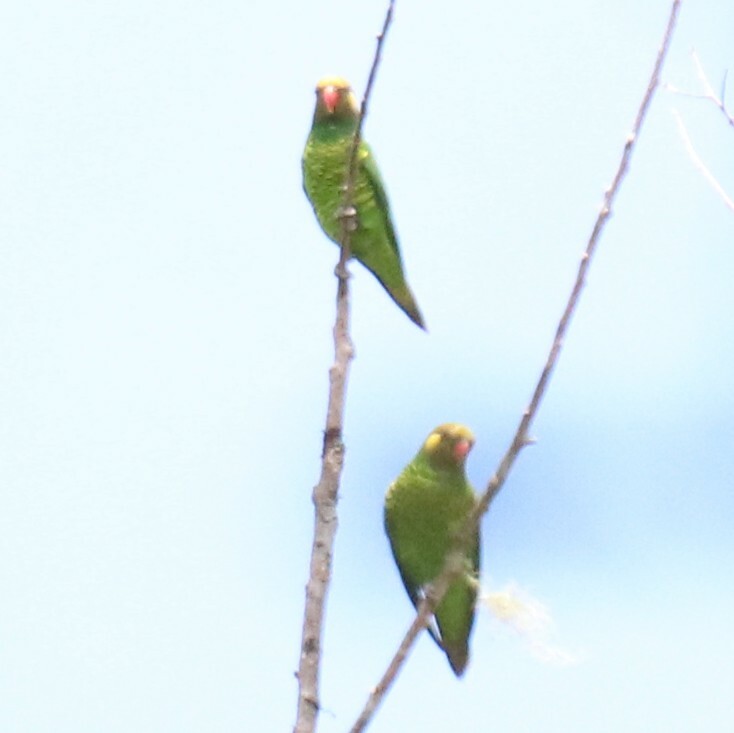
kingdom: Animalia
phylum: Chordata
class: Aves
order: Psittaciformes
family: Psittaculidae
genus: Saudareos
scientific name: Saudareos meyeri
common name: Yellow-cheeked lorikeet
